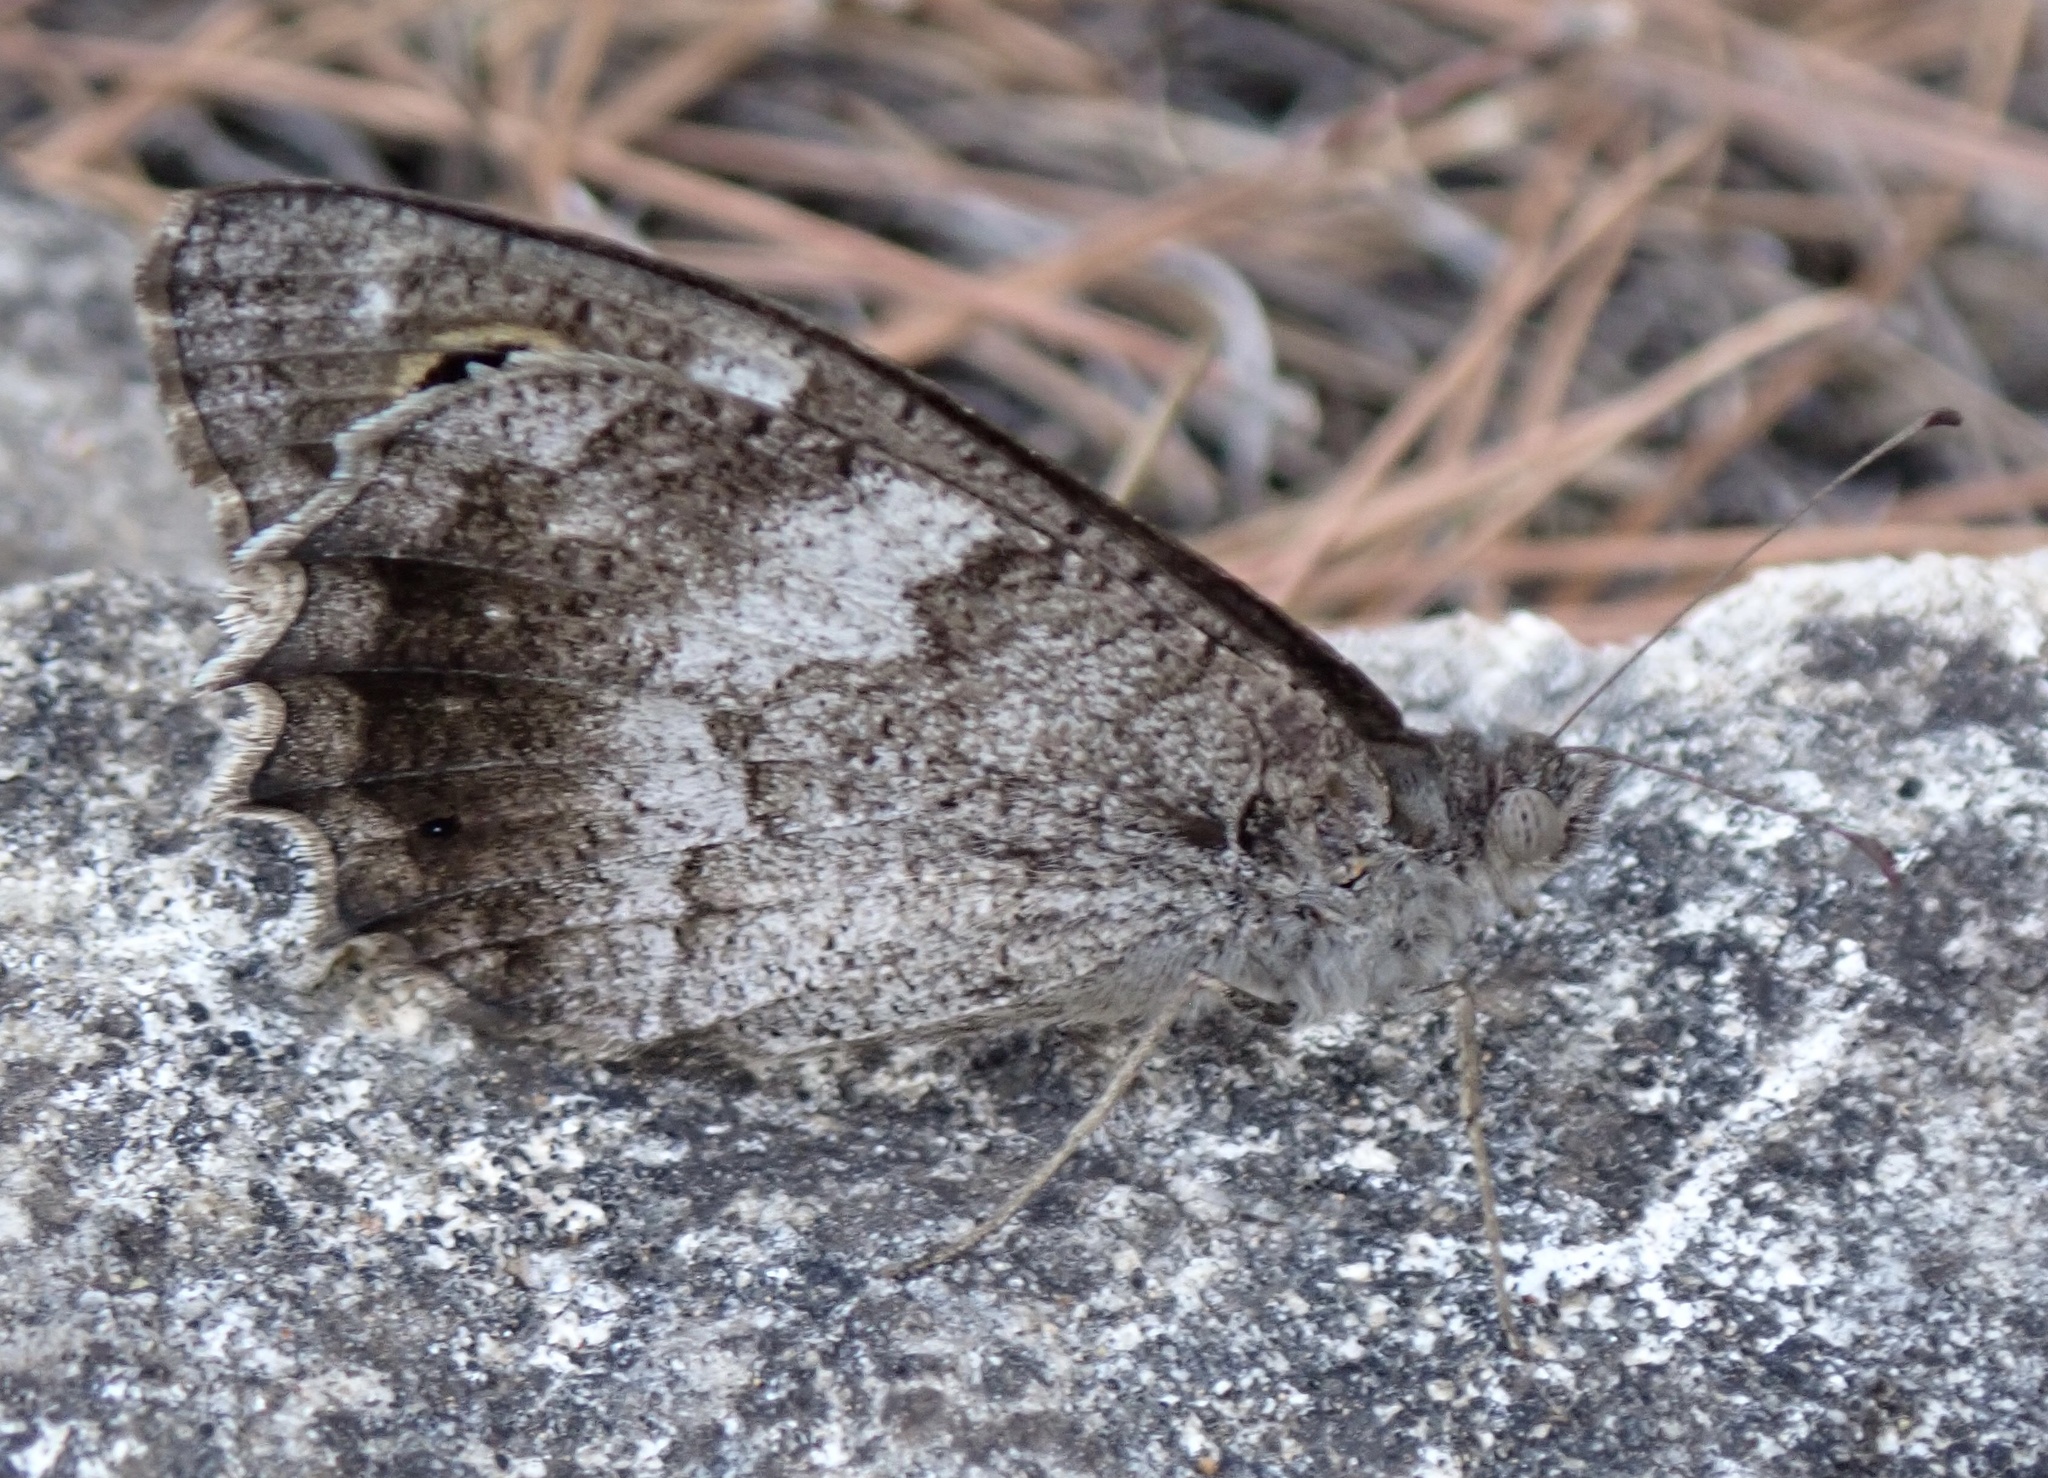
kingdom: Animalia
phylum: Arthropoda
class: Insecta
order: Lepidoptera
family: Nymphalidae
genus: Hipparchia
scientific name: Hipparchia statilinus
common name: Tree grayling
